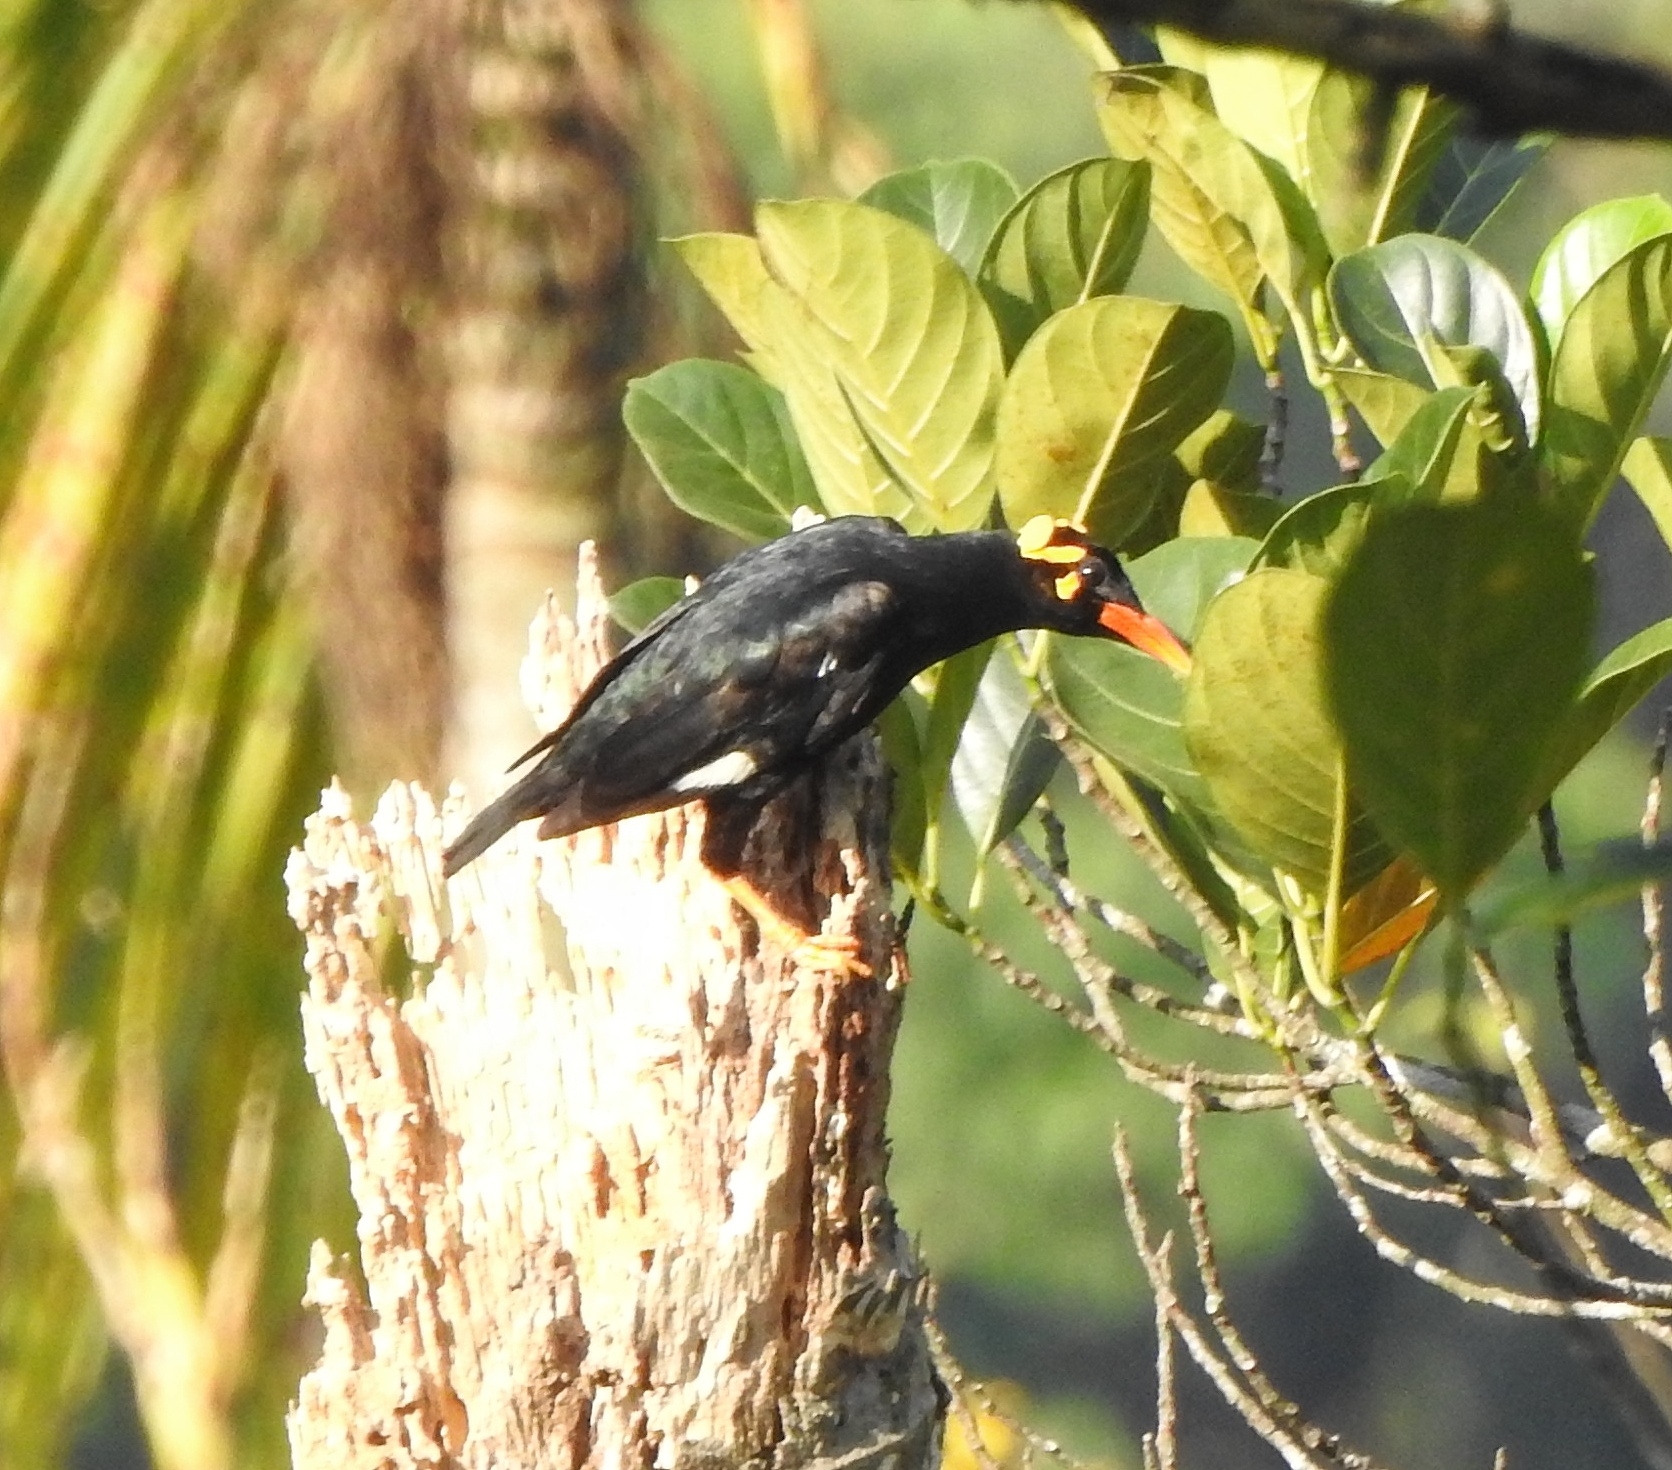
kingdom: Animalia
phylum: Chordata
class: Aves
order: Passeriformes
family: Sturnidae
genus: Gracula
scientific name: Gracula indica
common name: Southern hill myna
